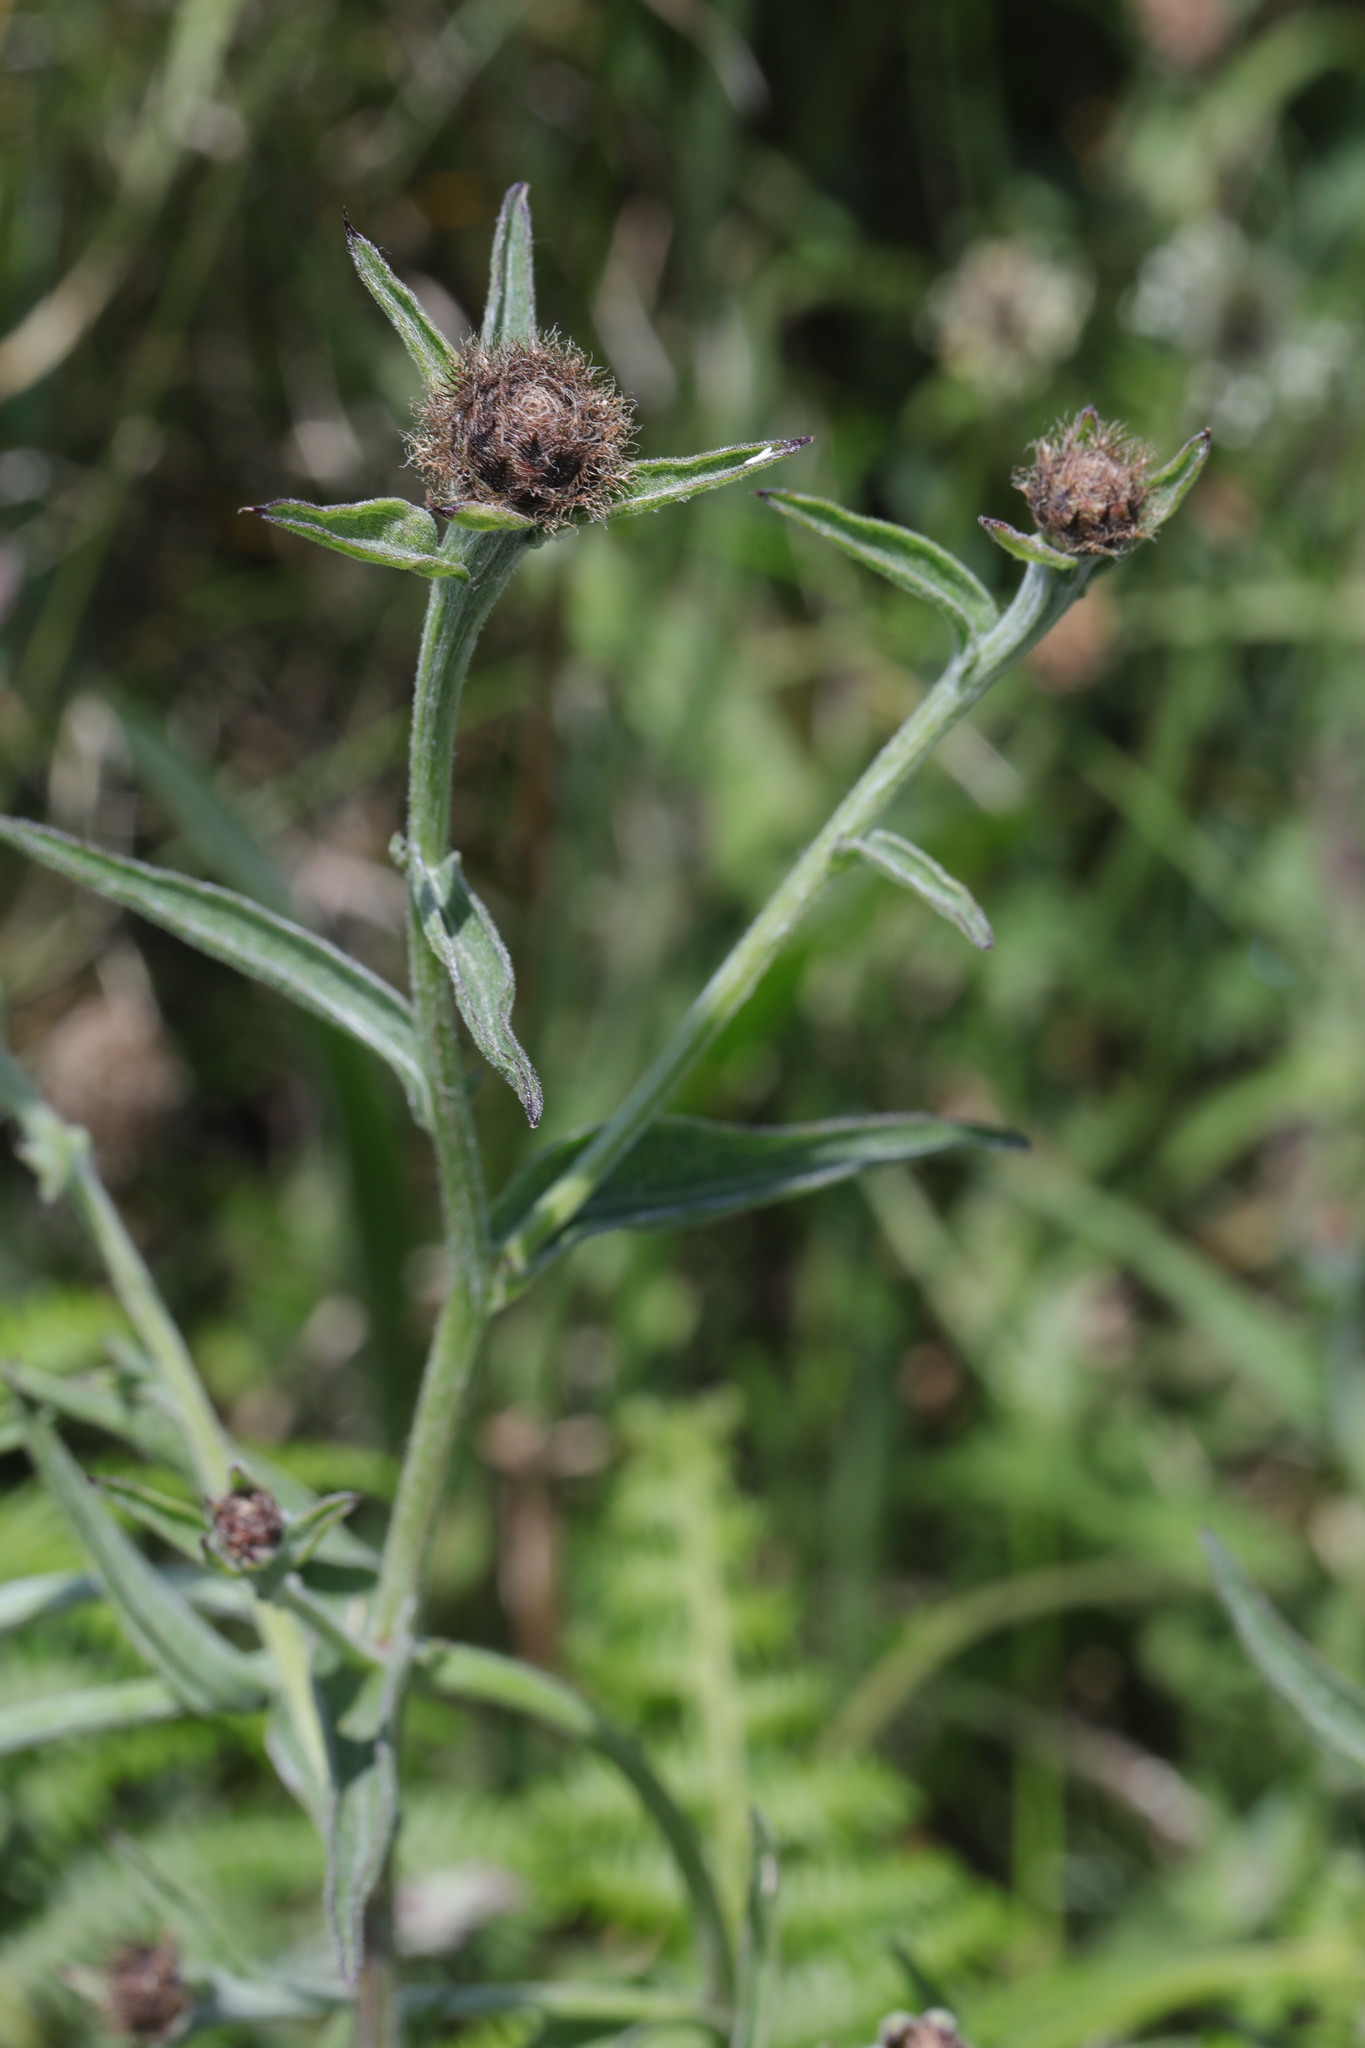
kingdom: Plantae
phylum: Tracheophyta
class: Magnoliopsida
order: Asterales
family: Asteraceae
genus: Centaurea
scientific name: Centaurea nigra
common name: Lesser knapweed
